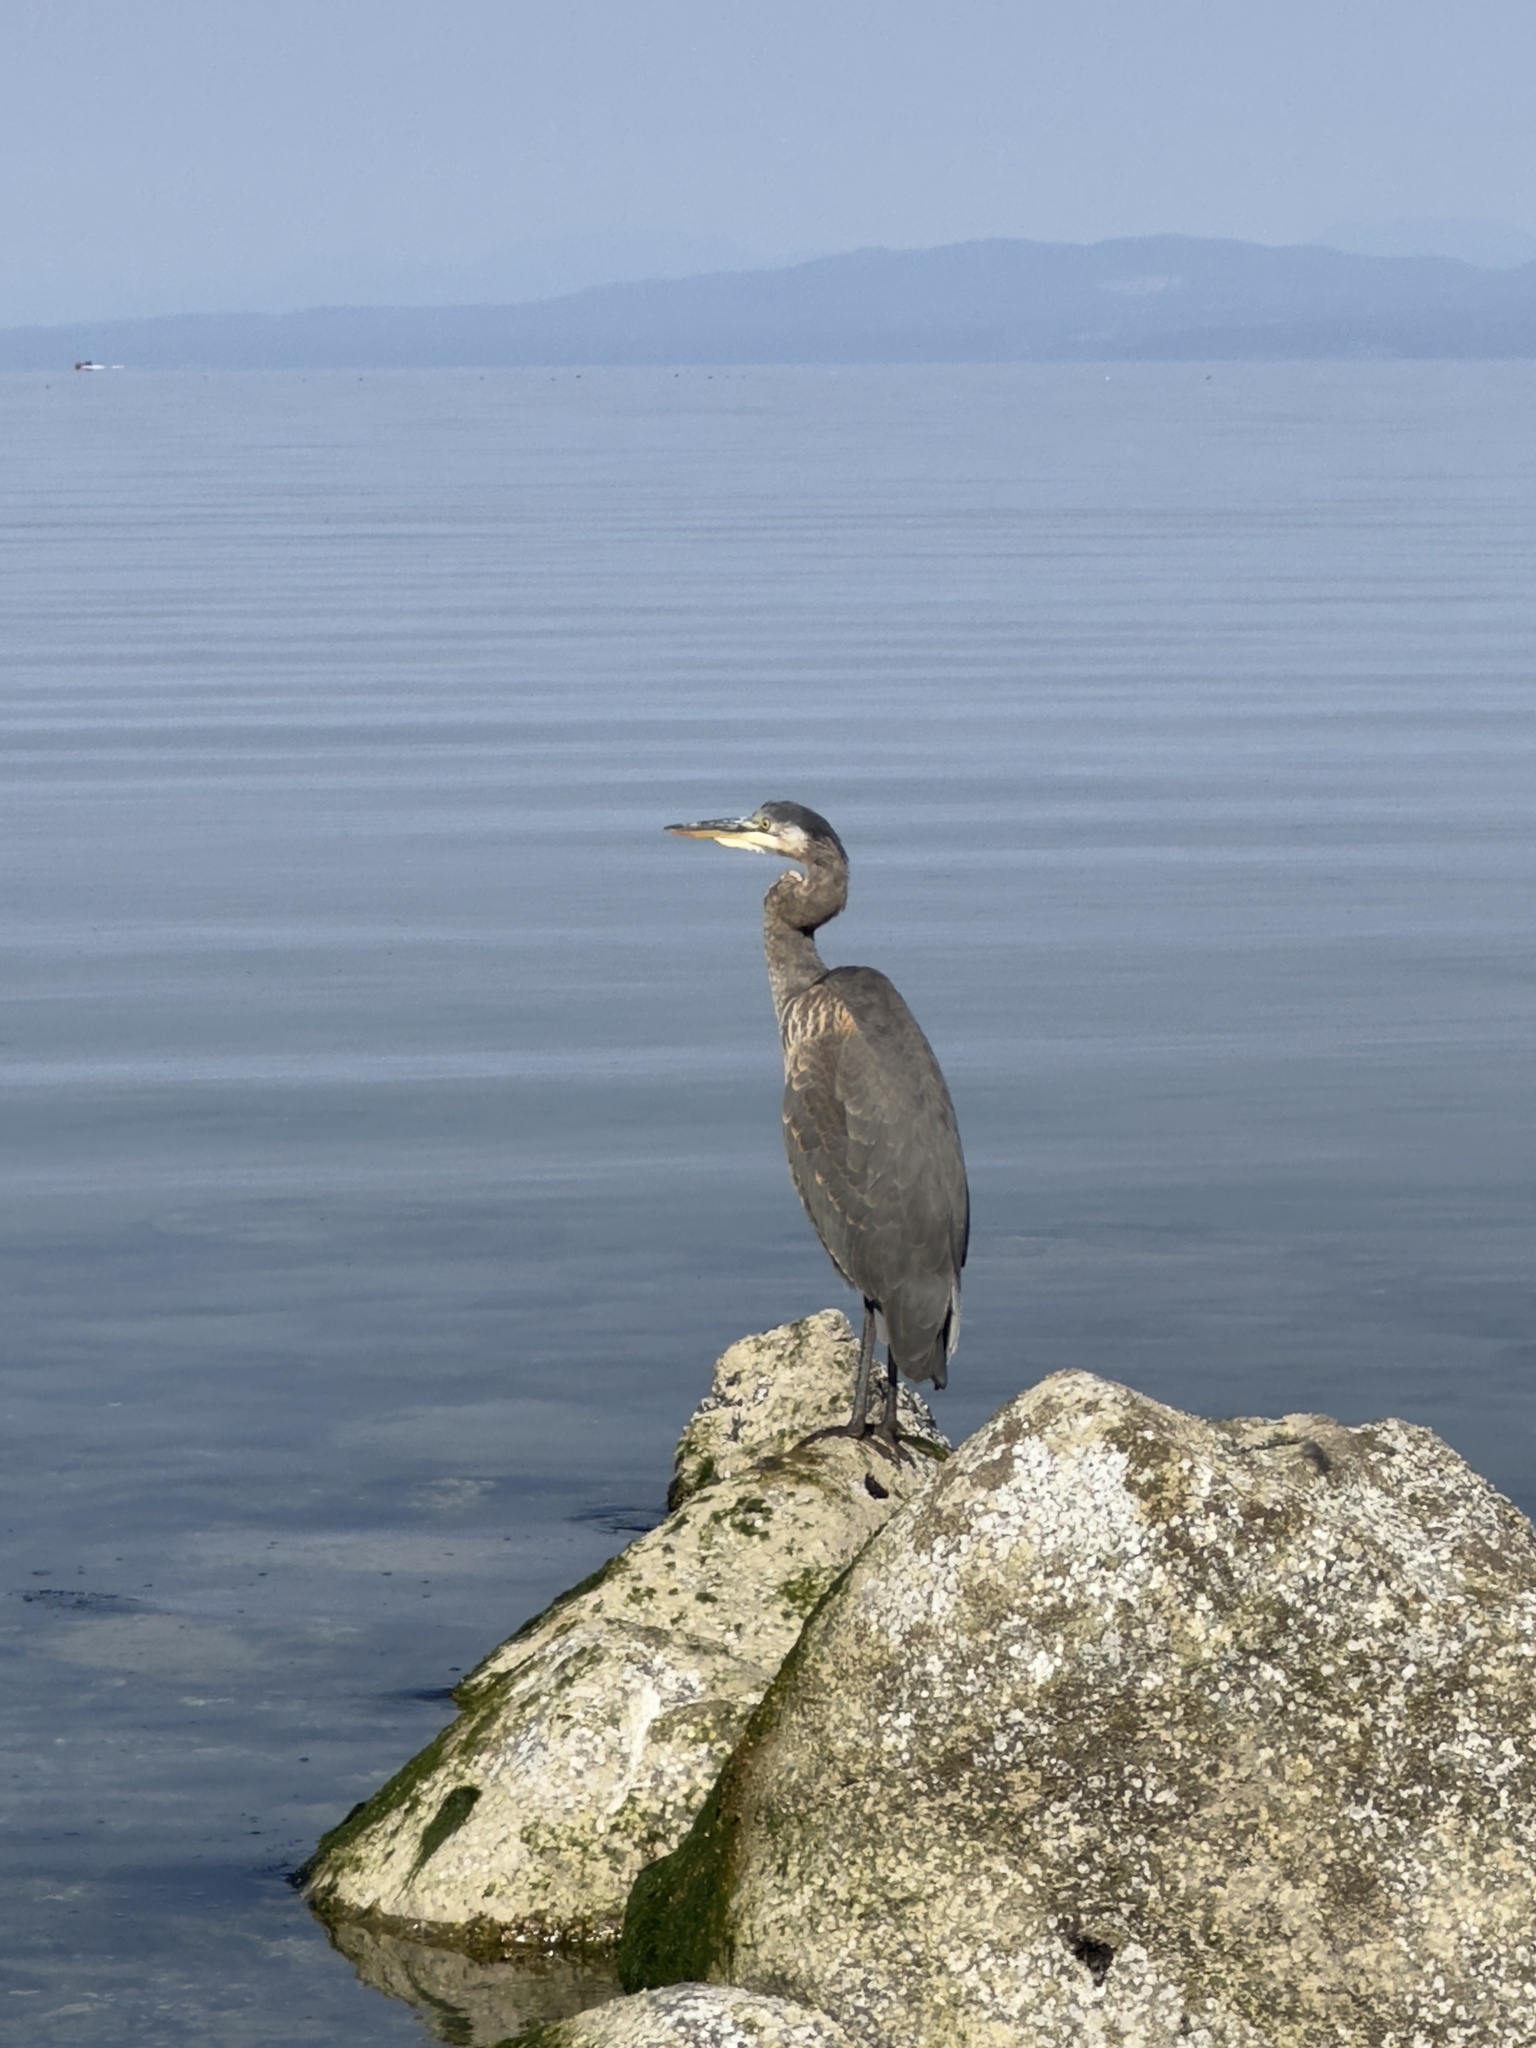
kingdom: Animalia
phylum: Chordata
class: Aves
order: Pelecaniformes
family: Ardeidae
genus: Ardea
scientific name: Ardea herodias
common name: Great blue heron
